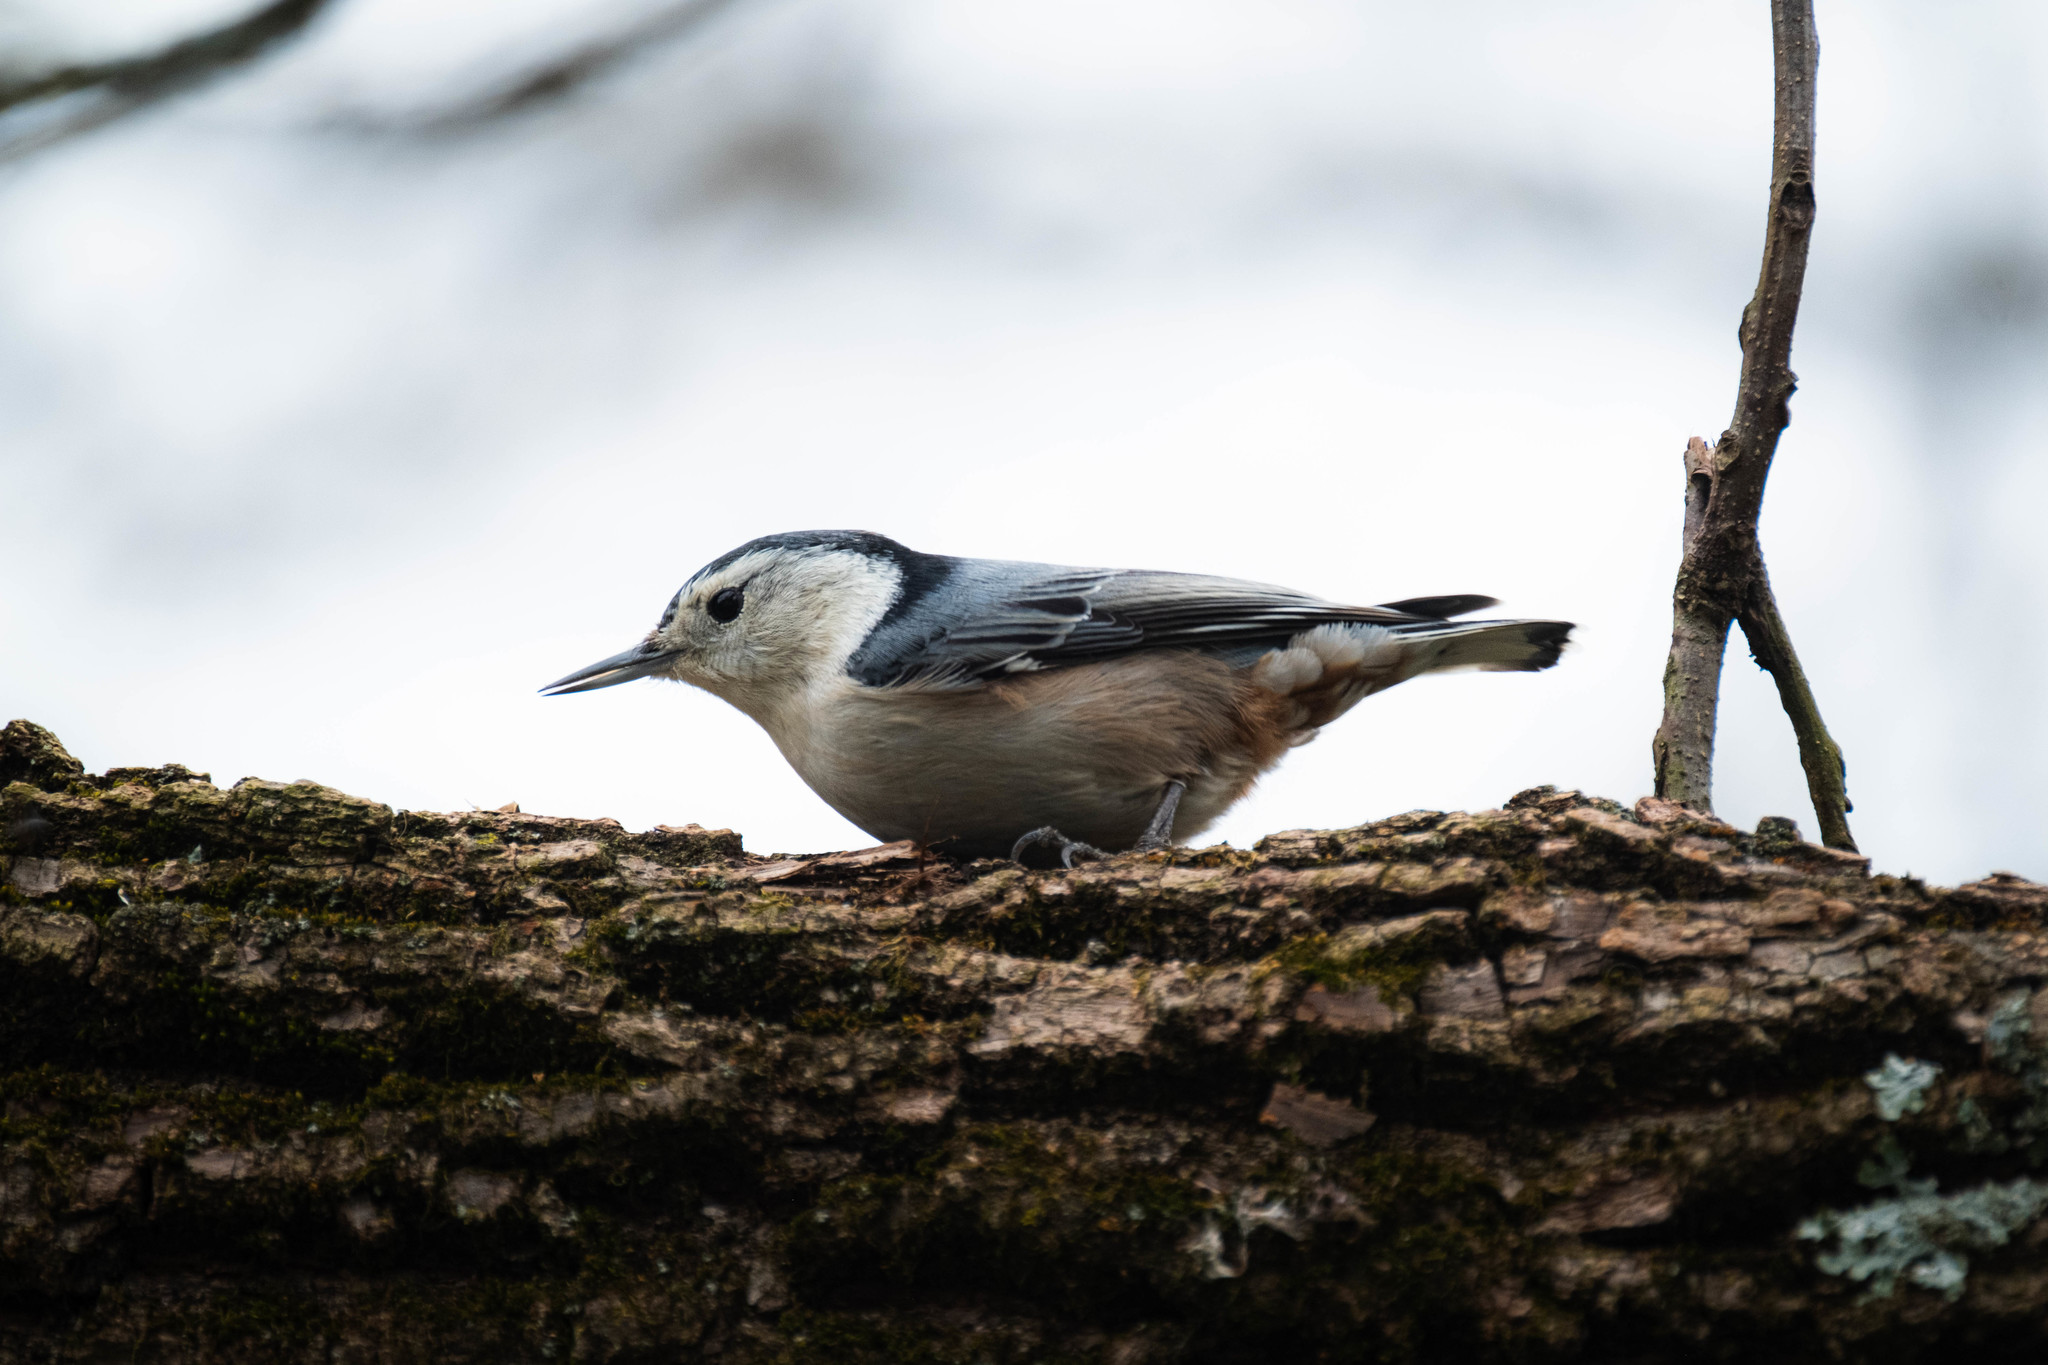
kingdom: Animalia
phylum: Chordata
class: Aves
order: Passeriformes
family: Sittidae
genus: Sitta
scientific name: Sitta carolinensis
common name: White-breasted nuthatch
